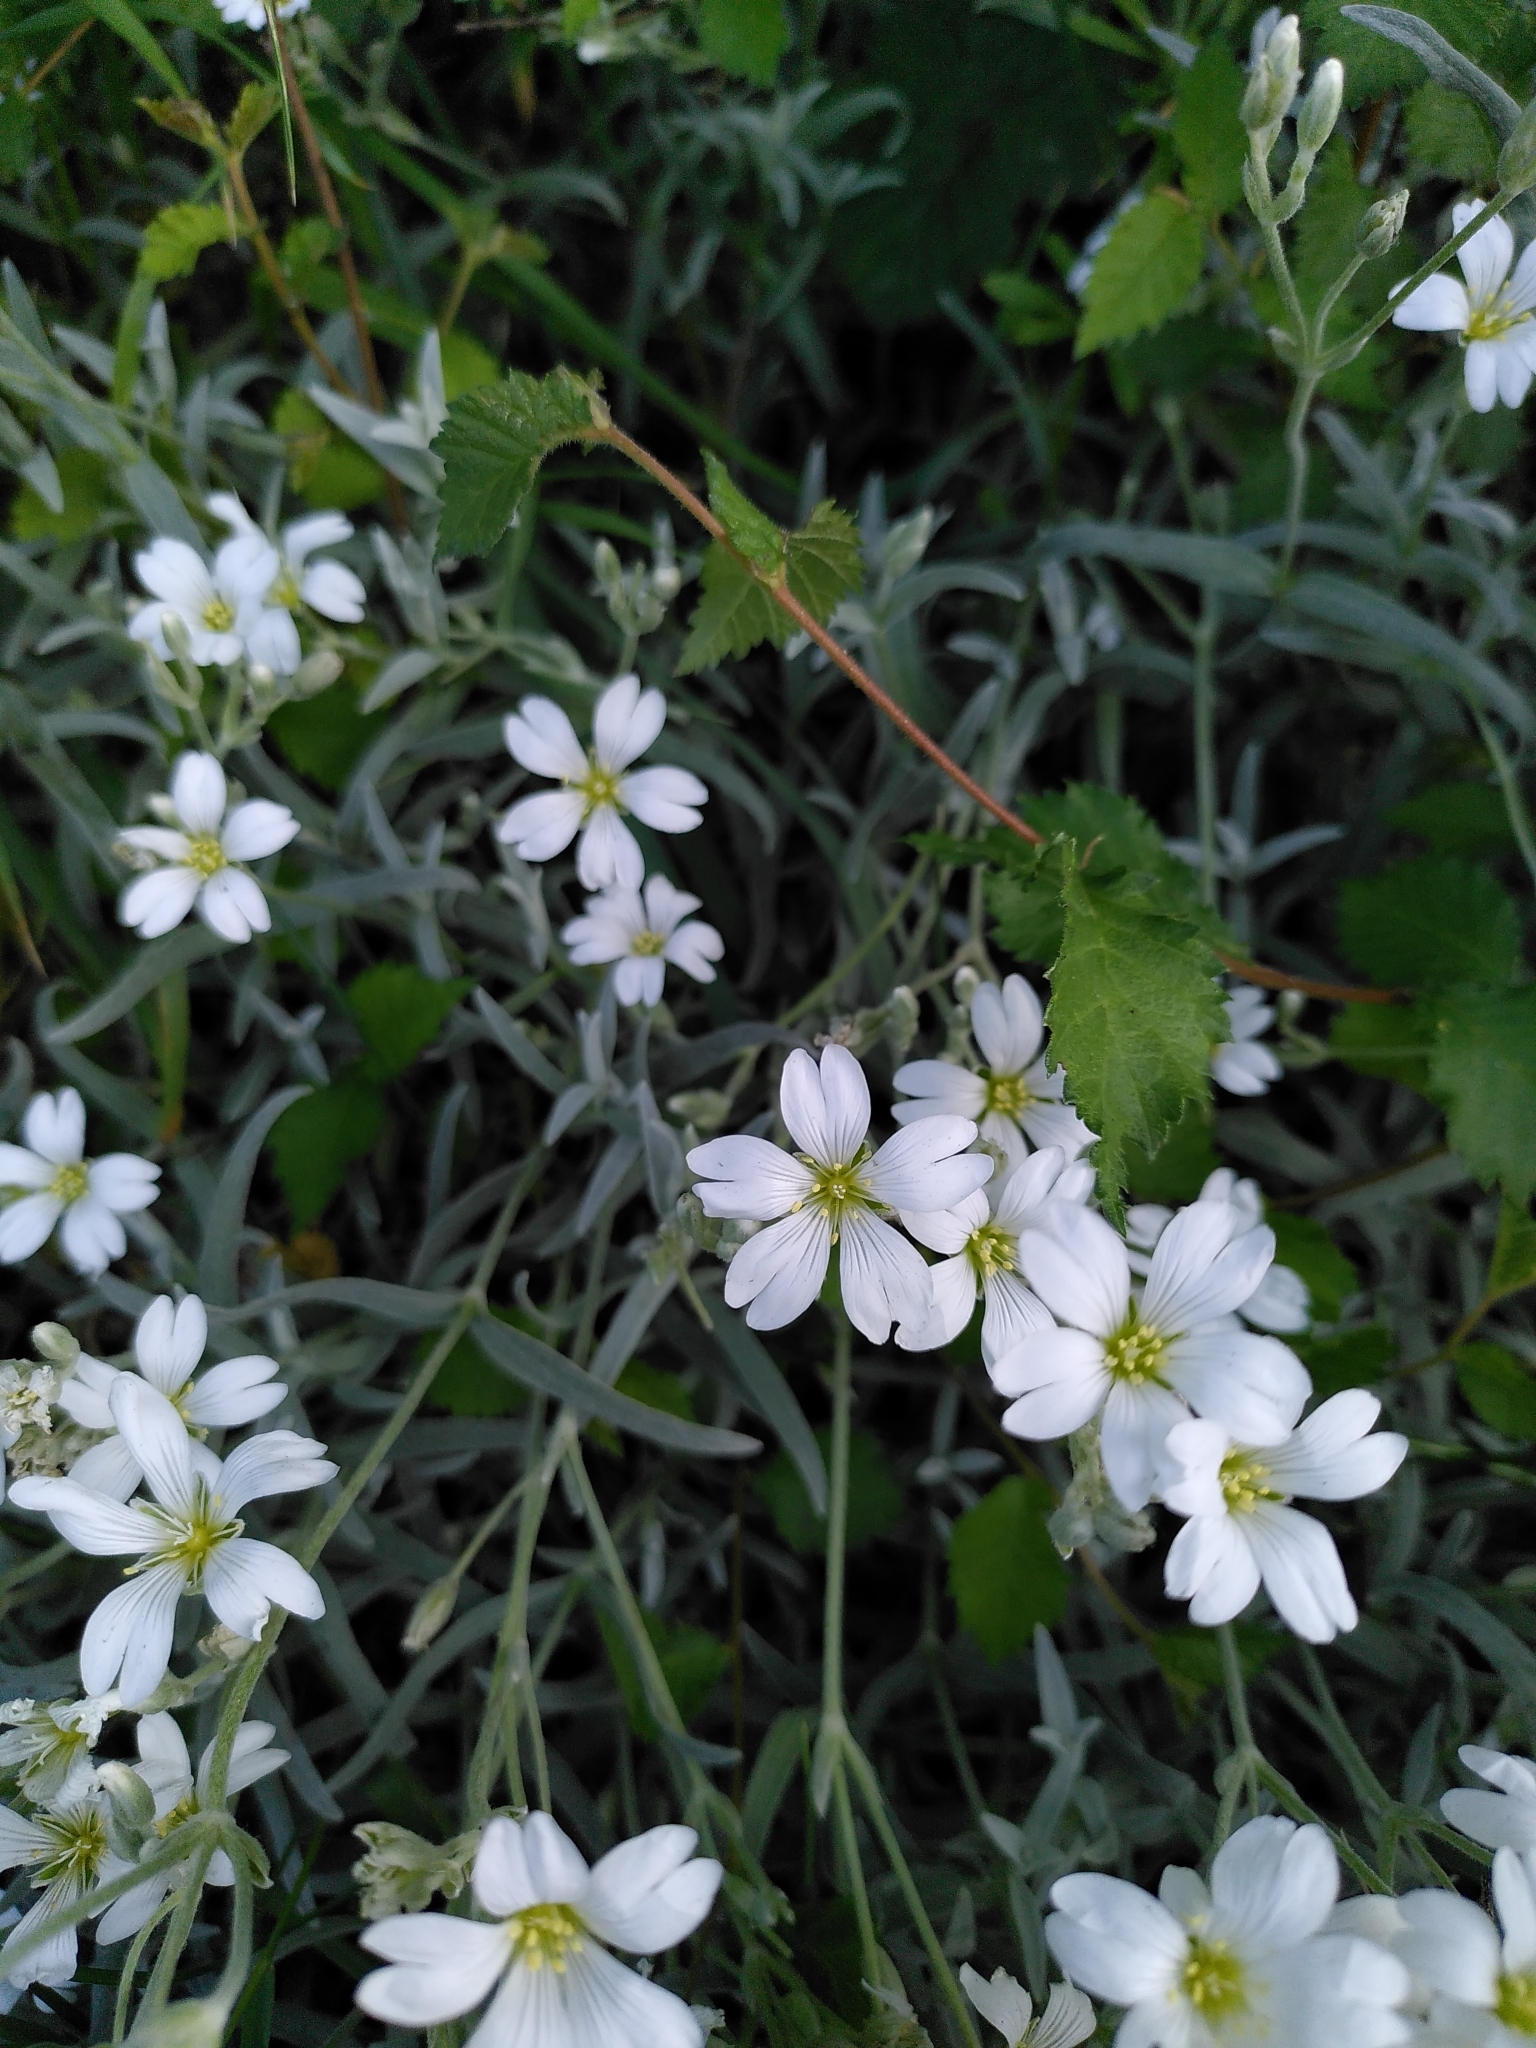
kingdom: Plantae
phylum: Tracheophyta
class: Magnoliopsida
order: Caryophyllales
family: Caryophyllaceae
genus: Cerastium
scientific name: Cerastium tomentosum
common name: Snow-in-summer
